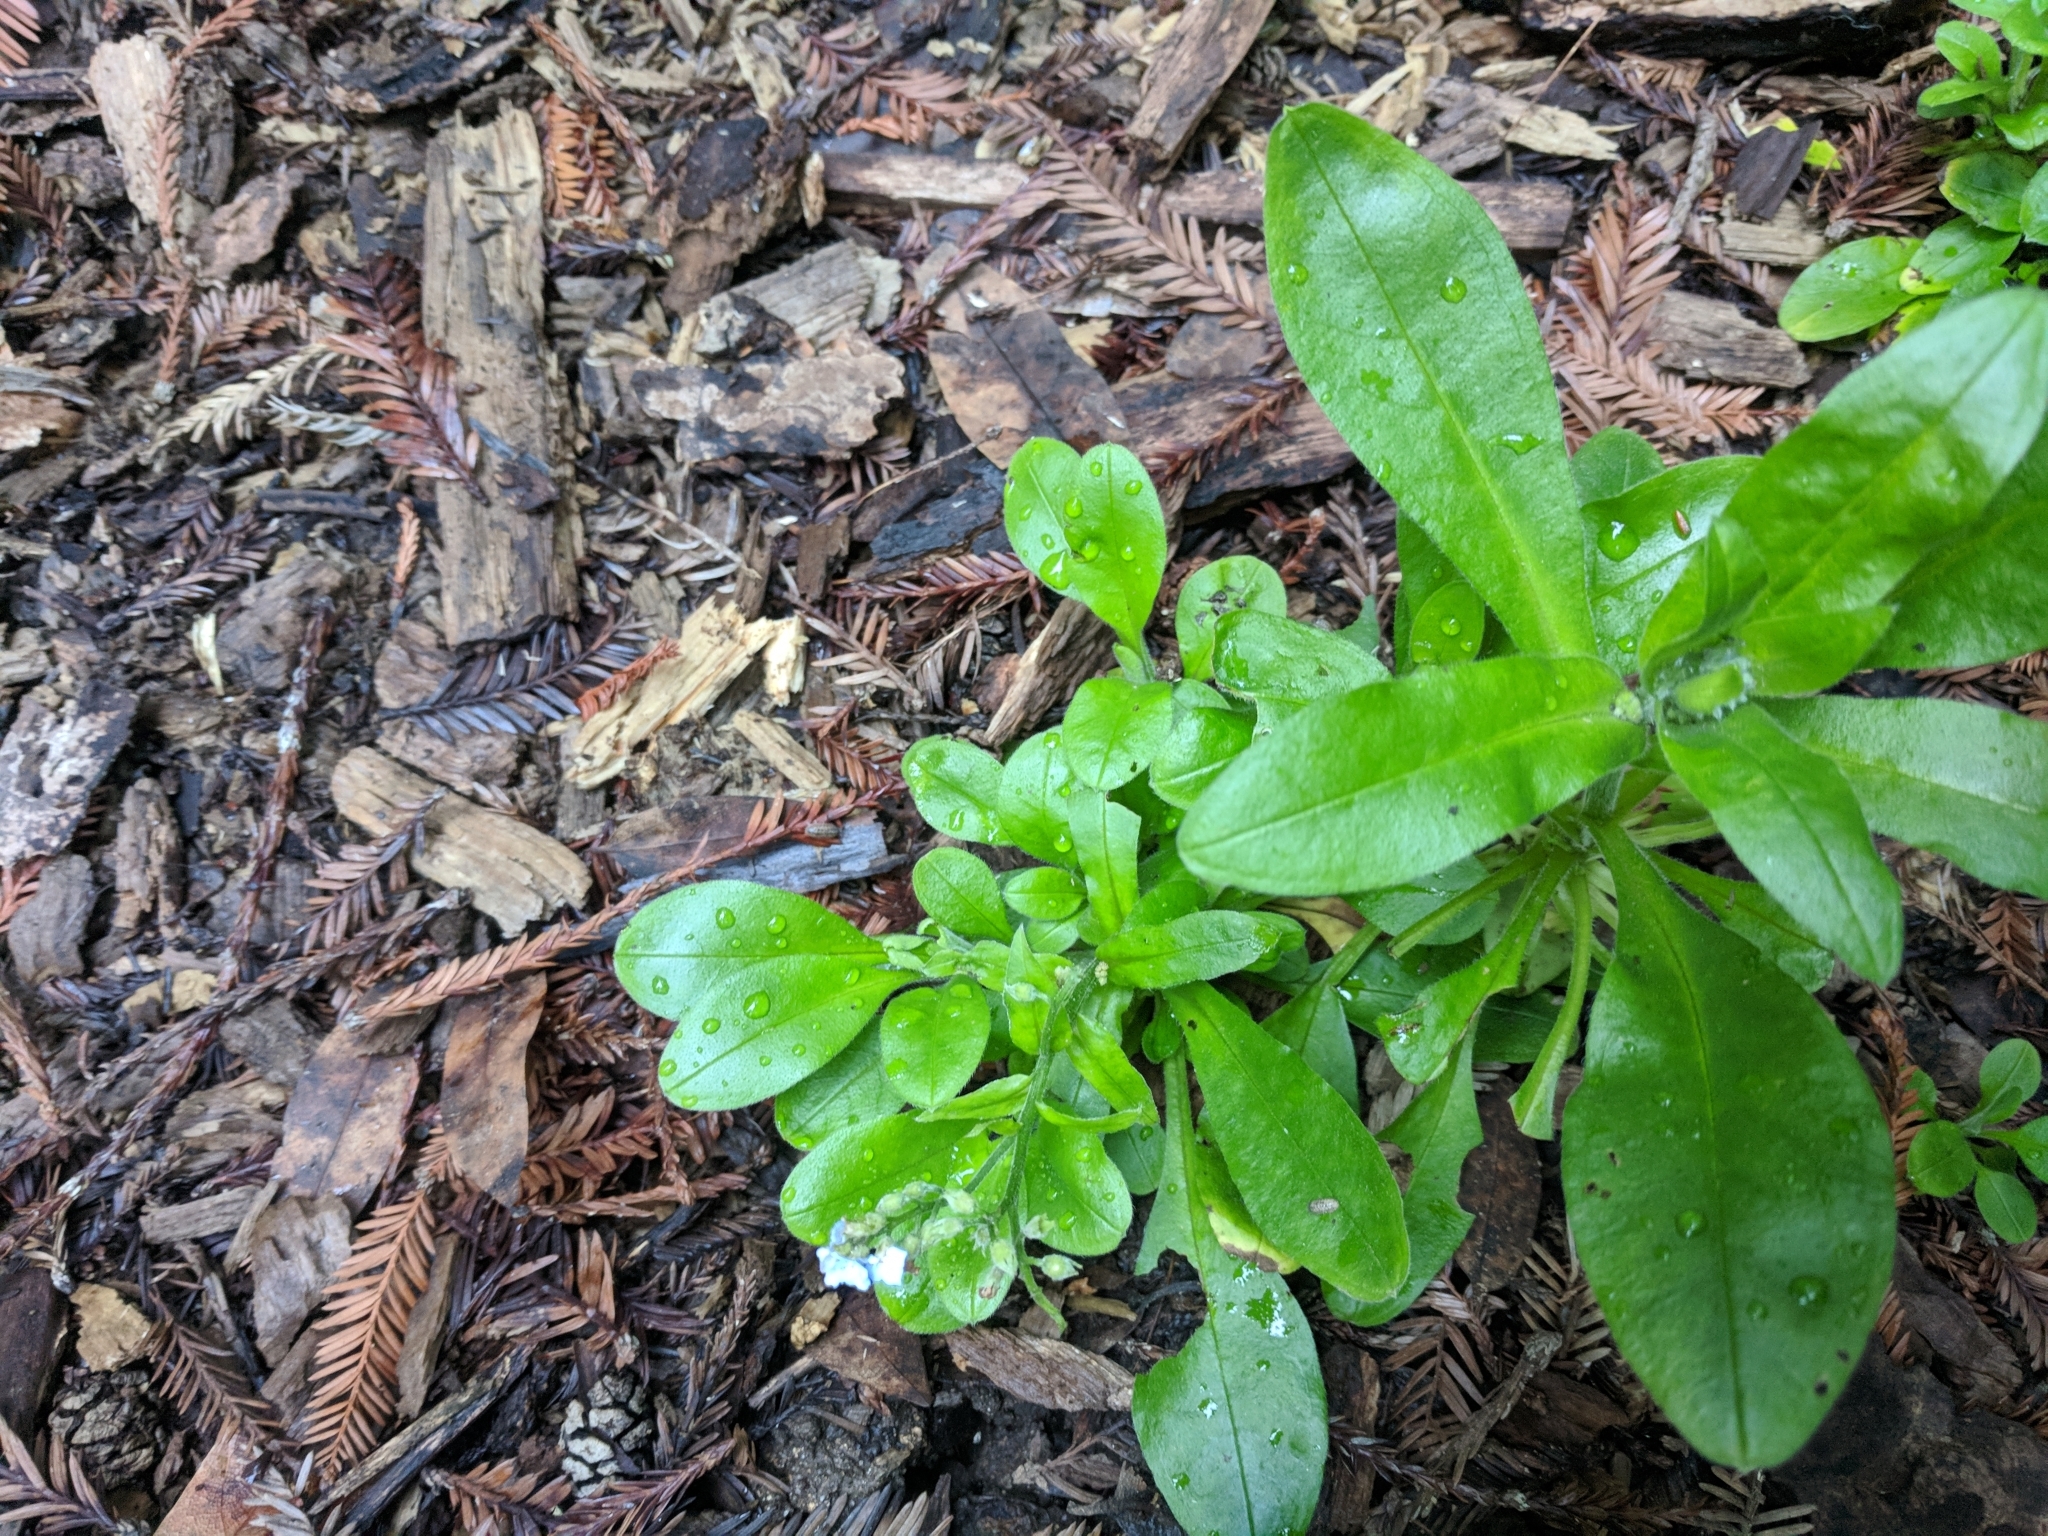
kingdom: Plantae
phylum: Tracheophyta
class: Magnoliopsida
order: Boraginales
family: Boraginaceae
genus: Myosotis
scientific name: Myosotis latifolia
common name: Broadleaf forget-me-not
